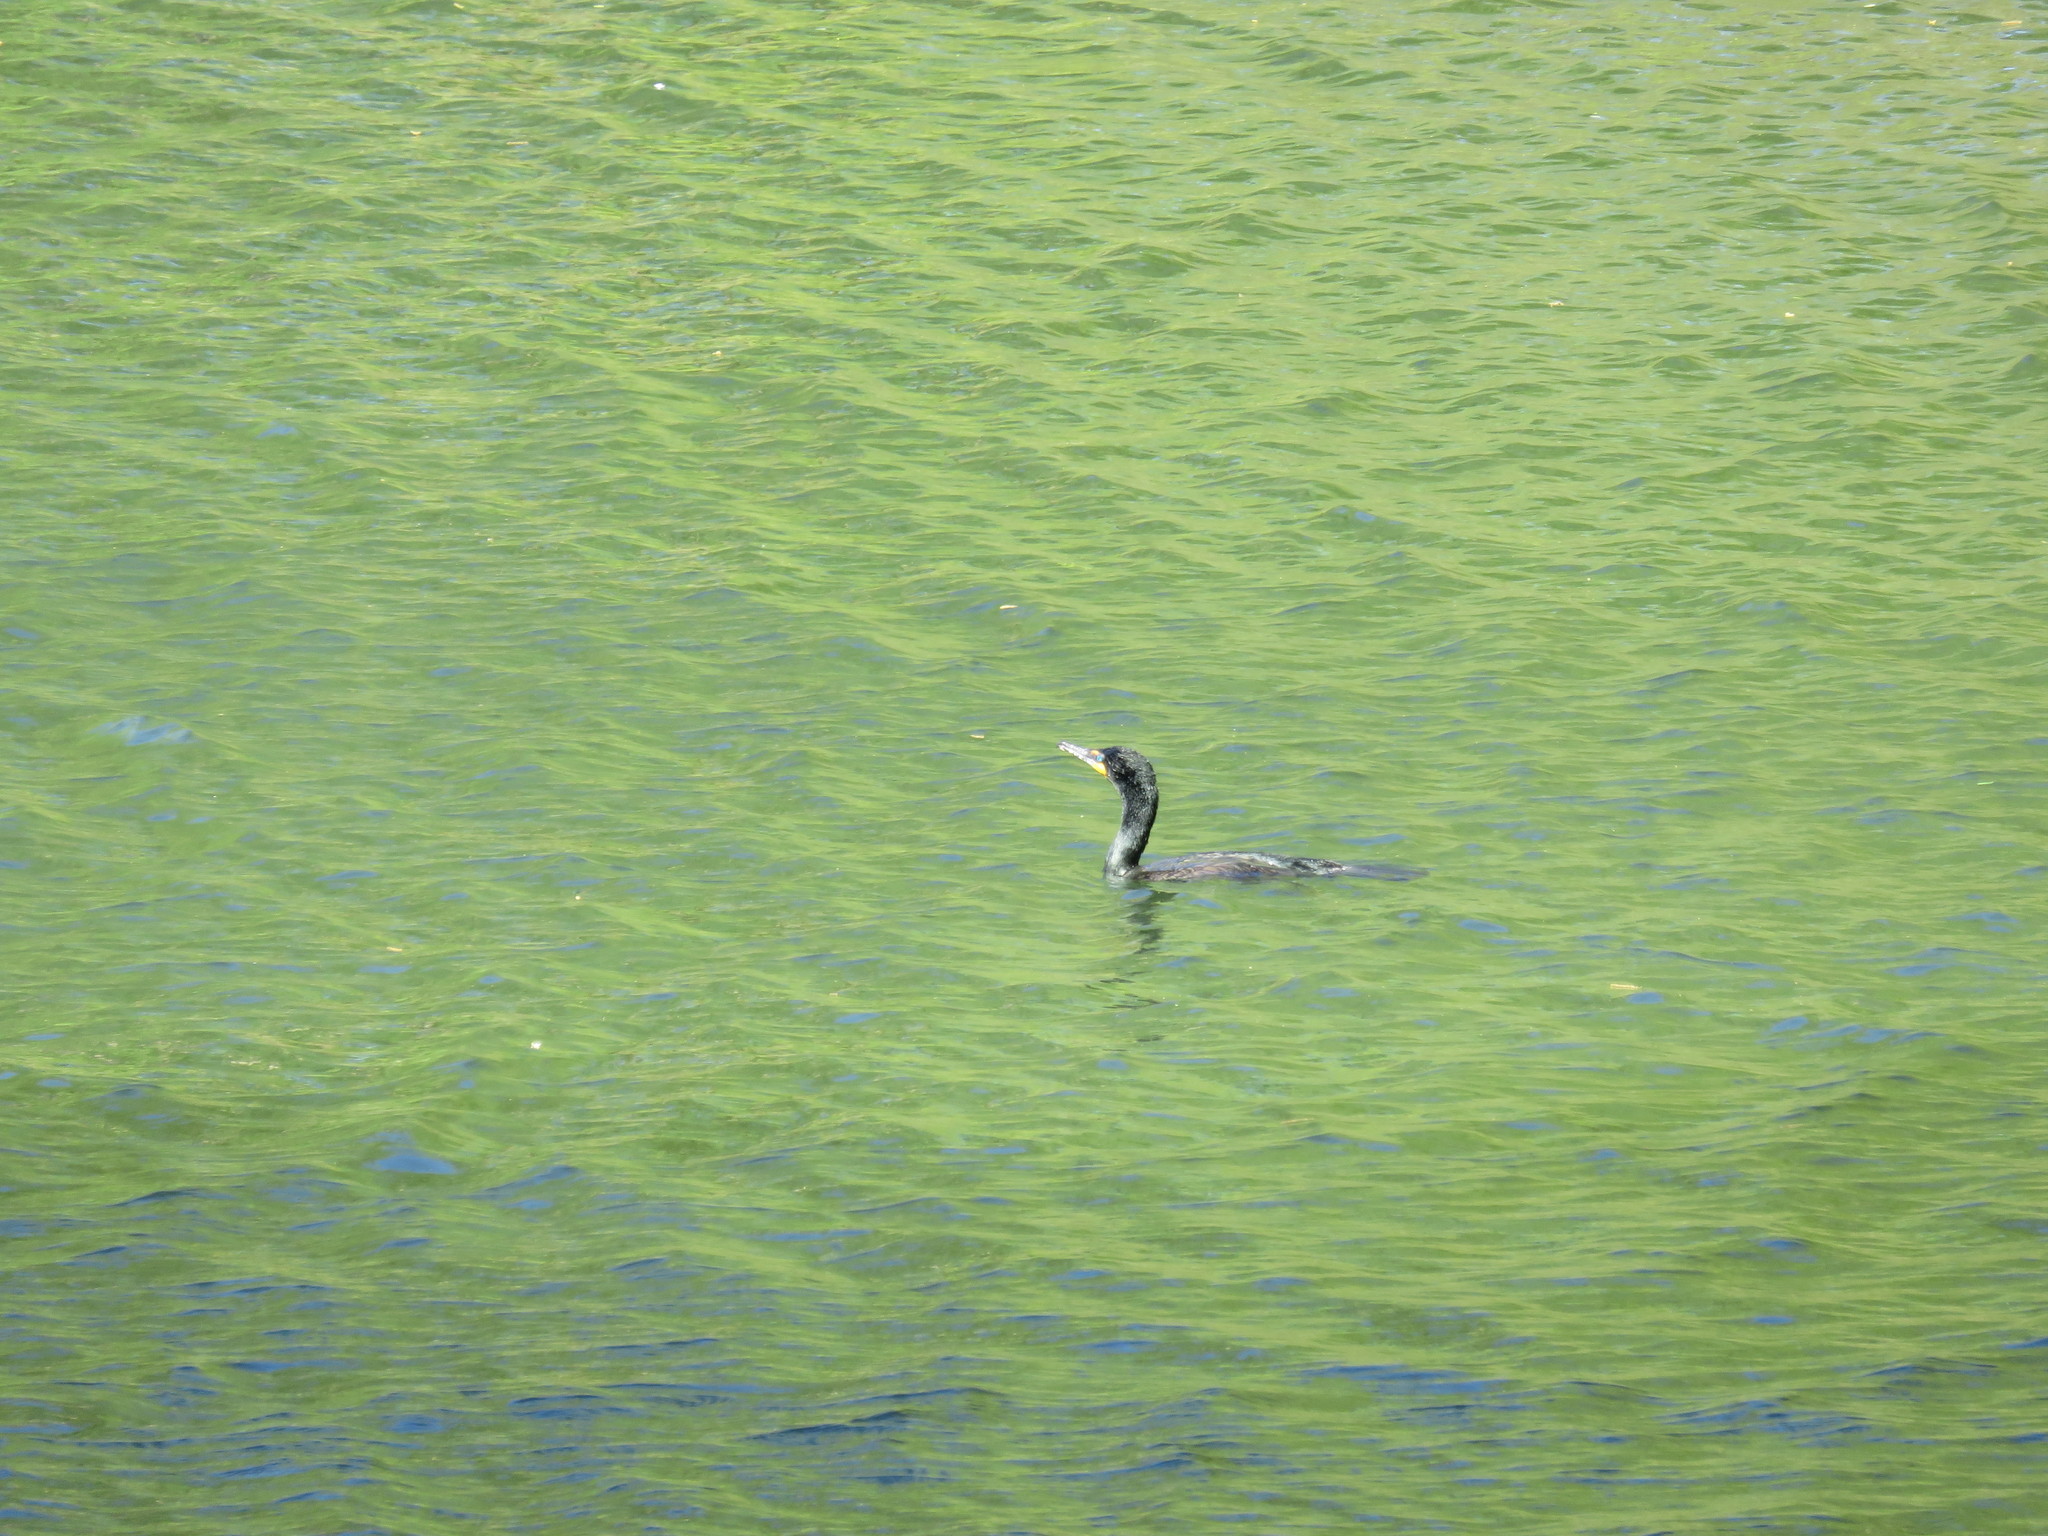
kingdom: Animalia
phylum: Chordata
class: Aves
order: Suliformes
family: Phalacrocoracidae
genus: Phalacrocorax
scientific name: Phalacrocorax auritus
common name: Double-crested cormorant
